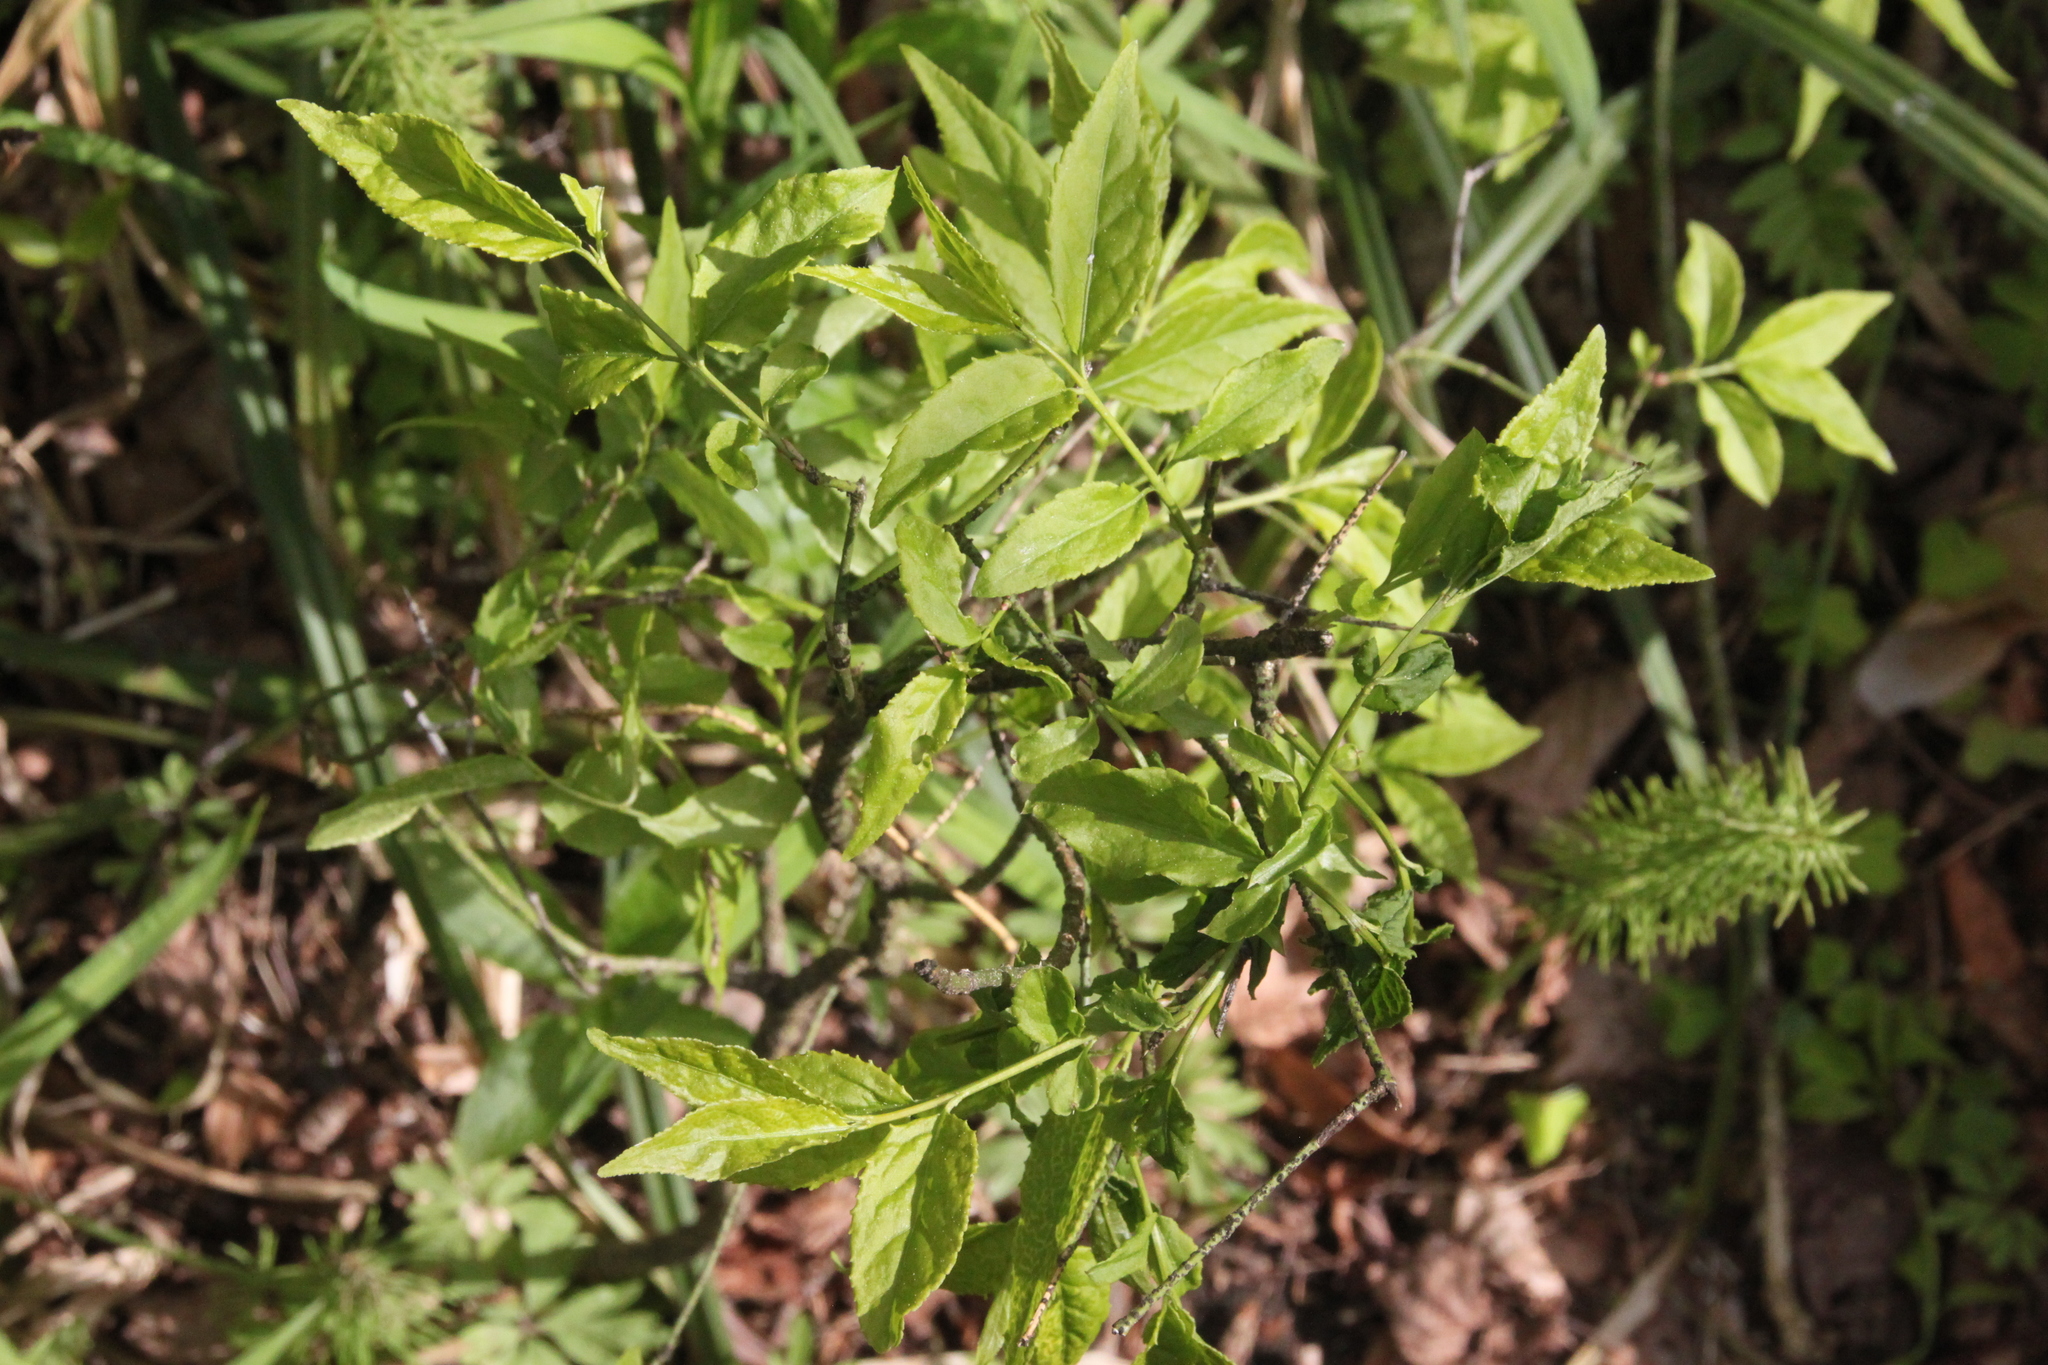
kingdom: Plantae
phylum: Tracheophyta
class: Magnoliopsida
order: Celastrales
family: Celastraceae
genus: Euonymus
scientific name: Euonymus verrucosus
